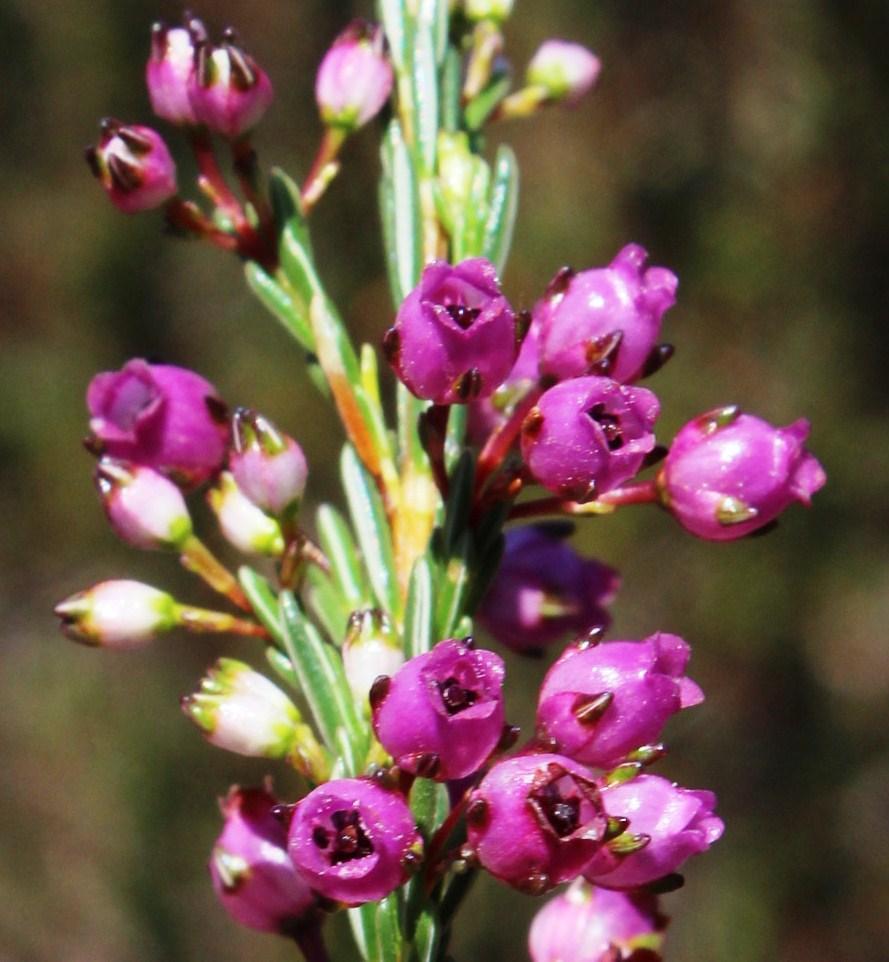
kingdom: Plantae
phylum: Tracheophyta
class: Magnoliopsida
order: Ericales
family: Ericaceae
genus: Erica
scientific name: Erica ferrea
